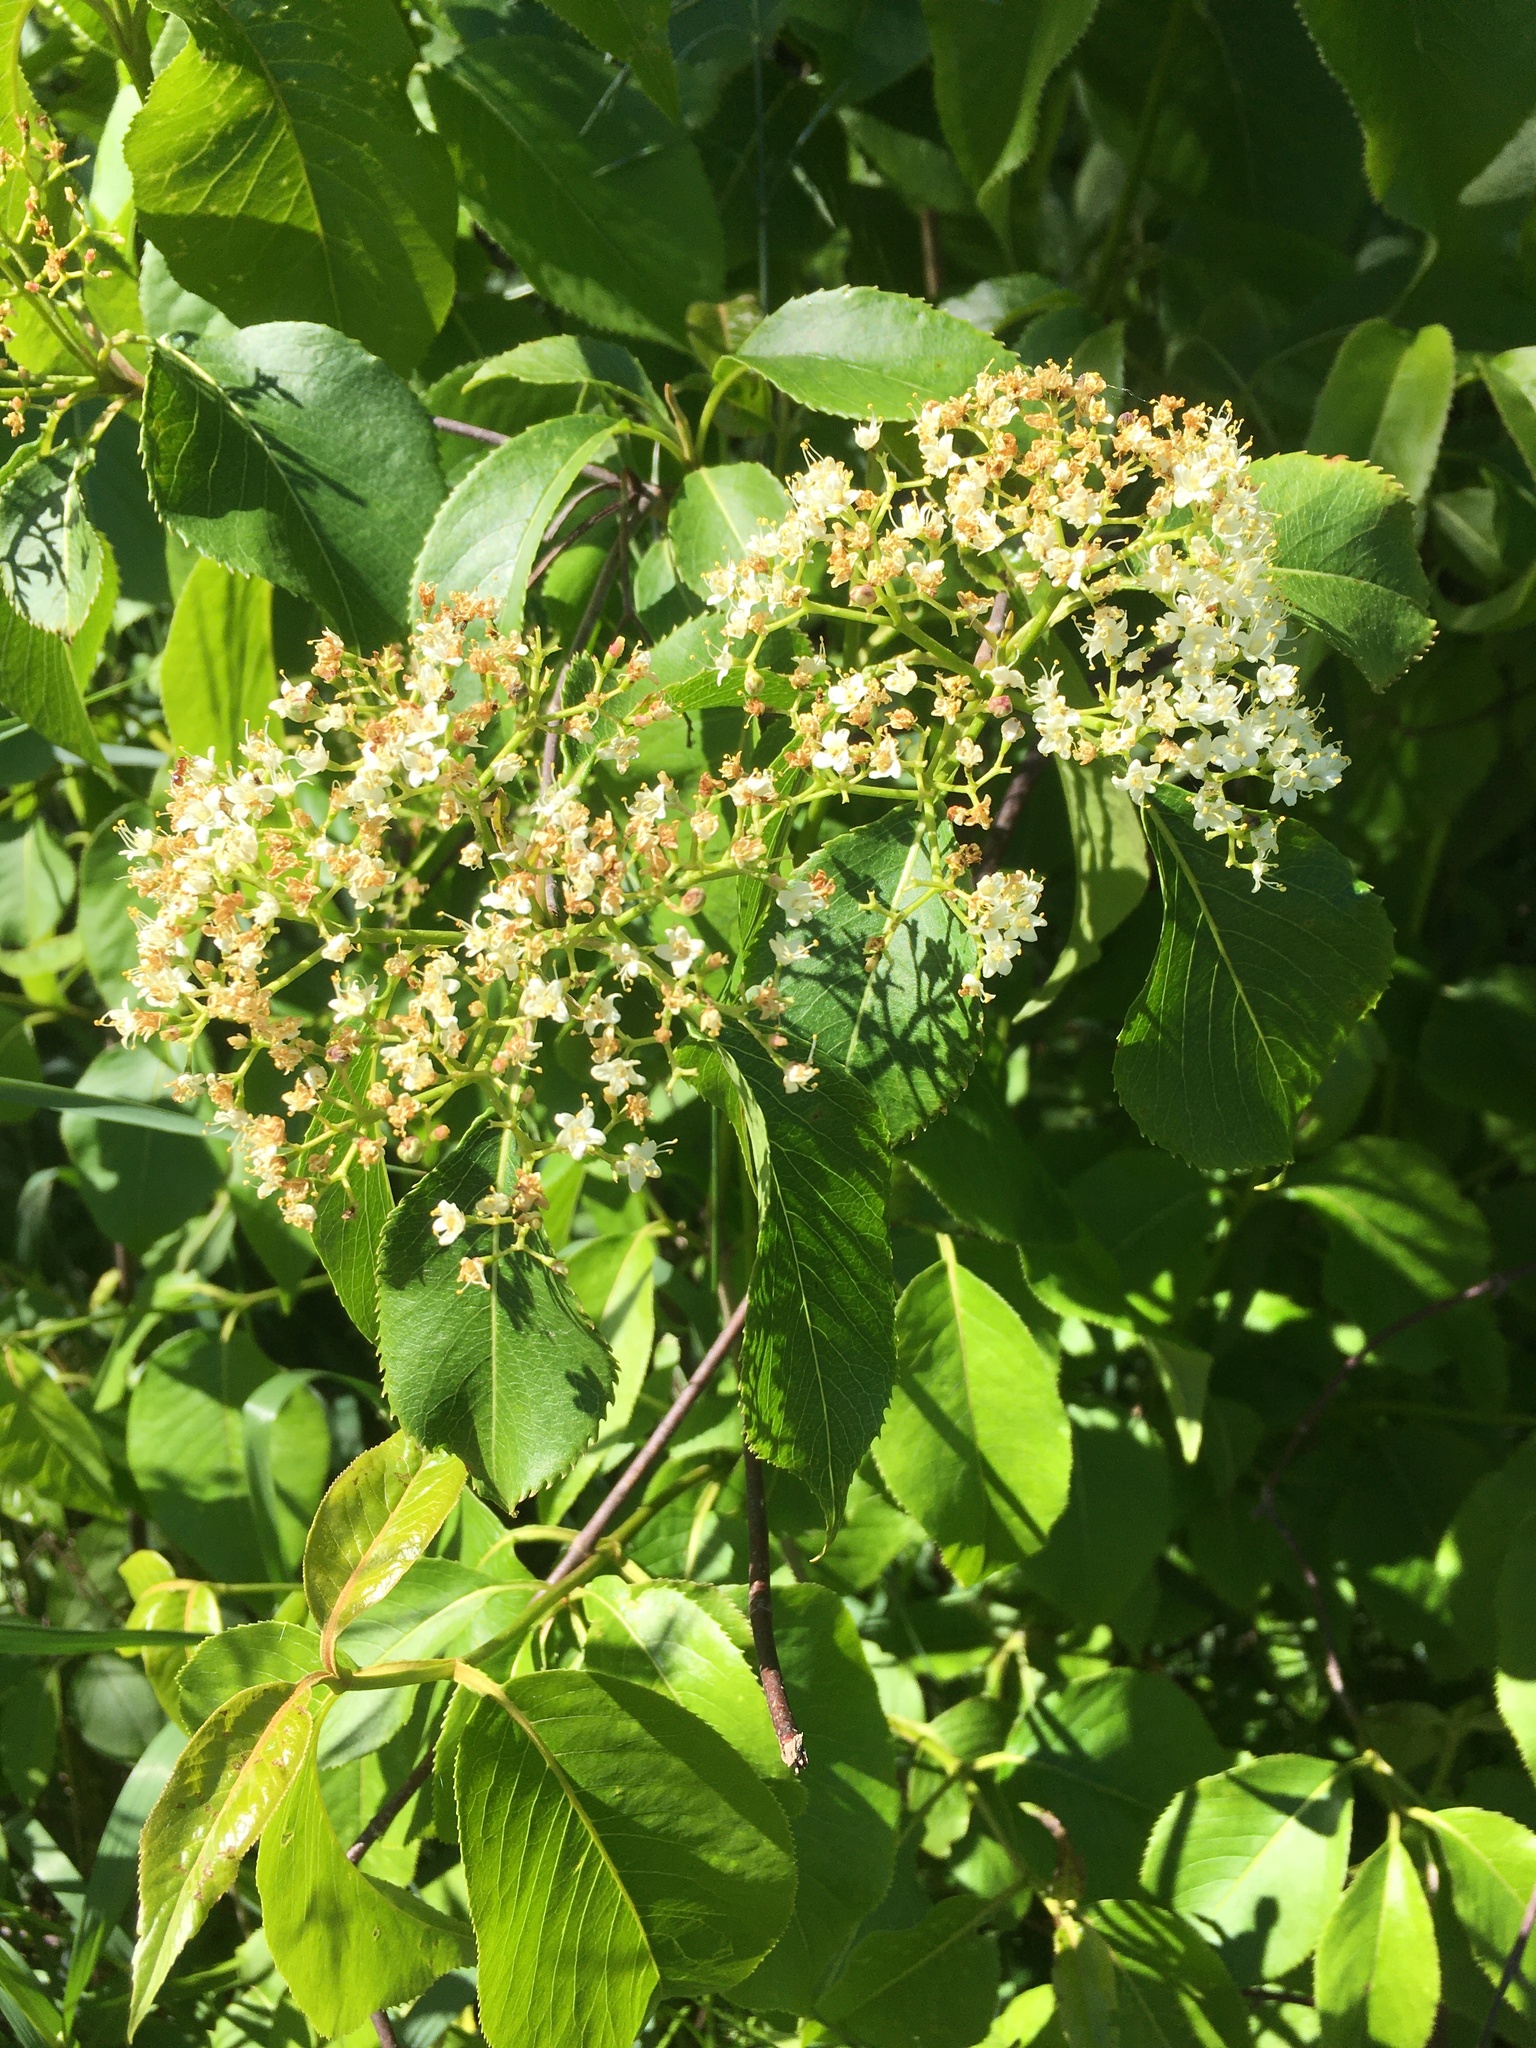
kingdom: Plantae
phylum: Tracheophyta
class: Magnoliopsida
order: Dipsacales
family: Viburnaceae
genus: Viburnum
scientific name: Viburnum lentago
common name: Black haw
